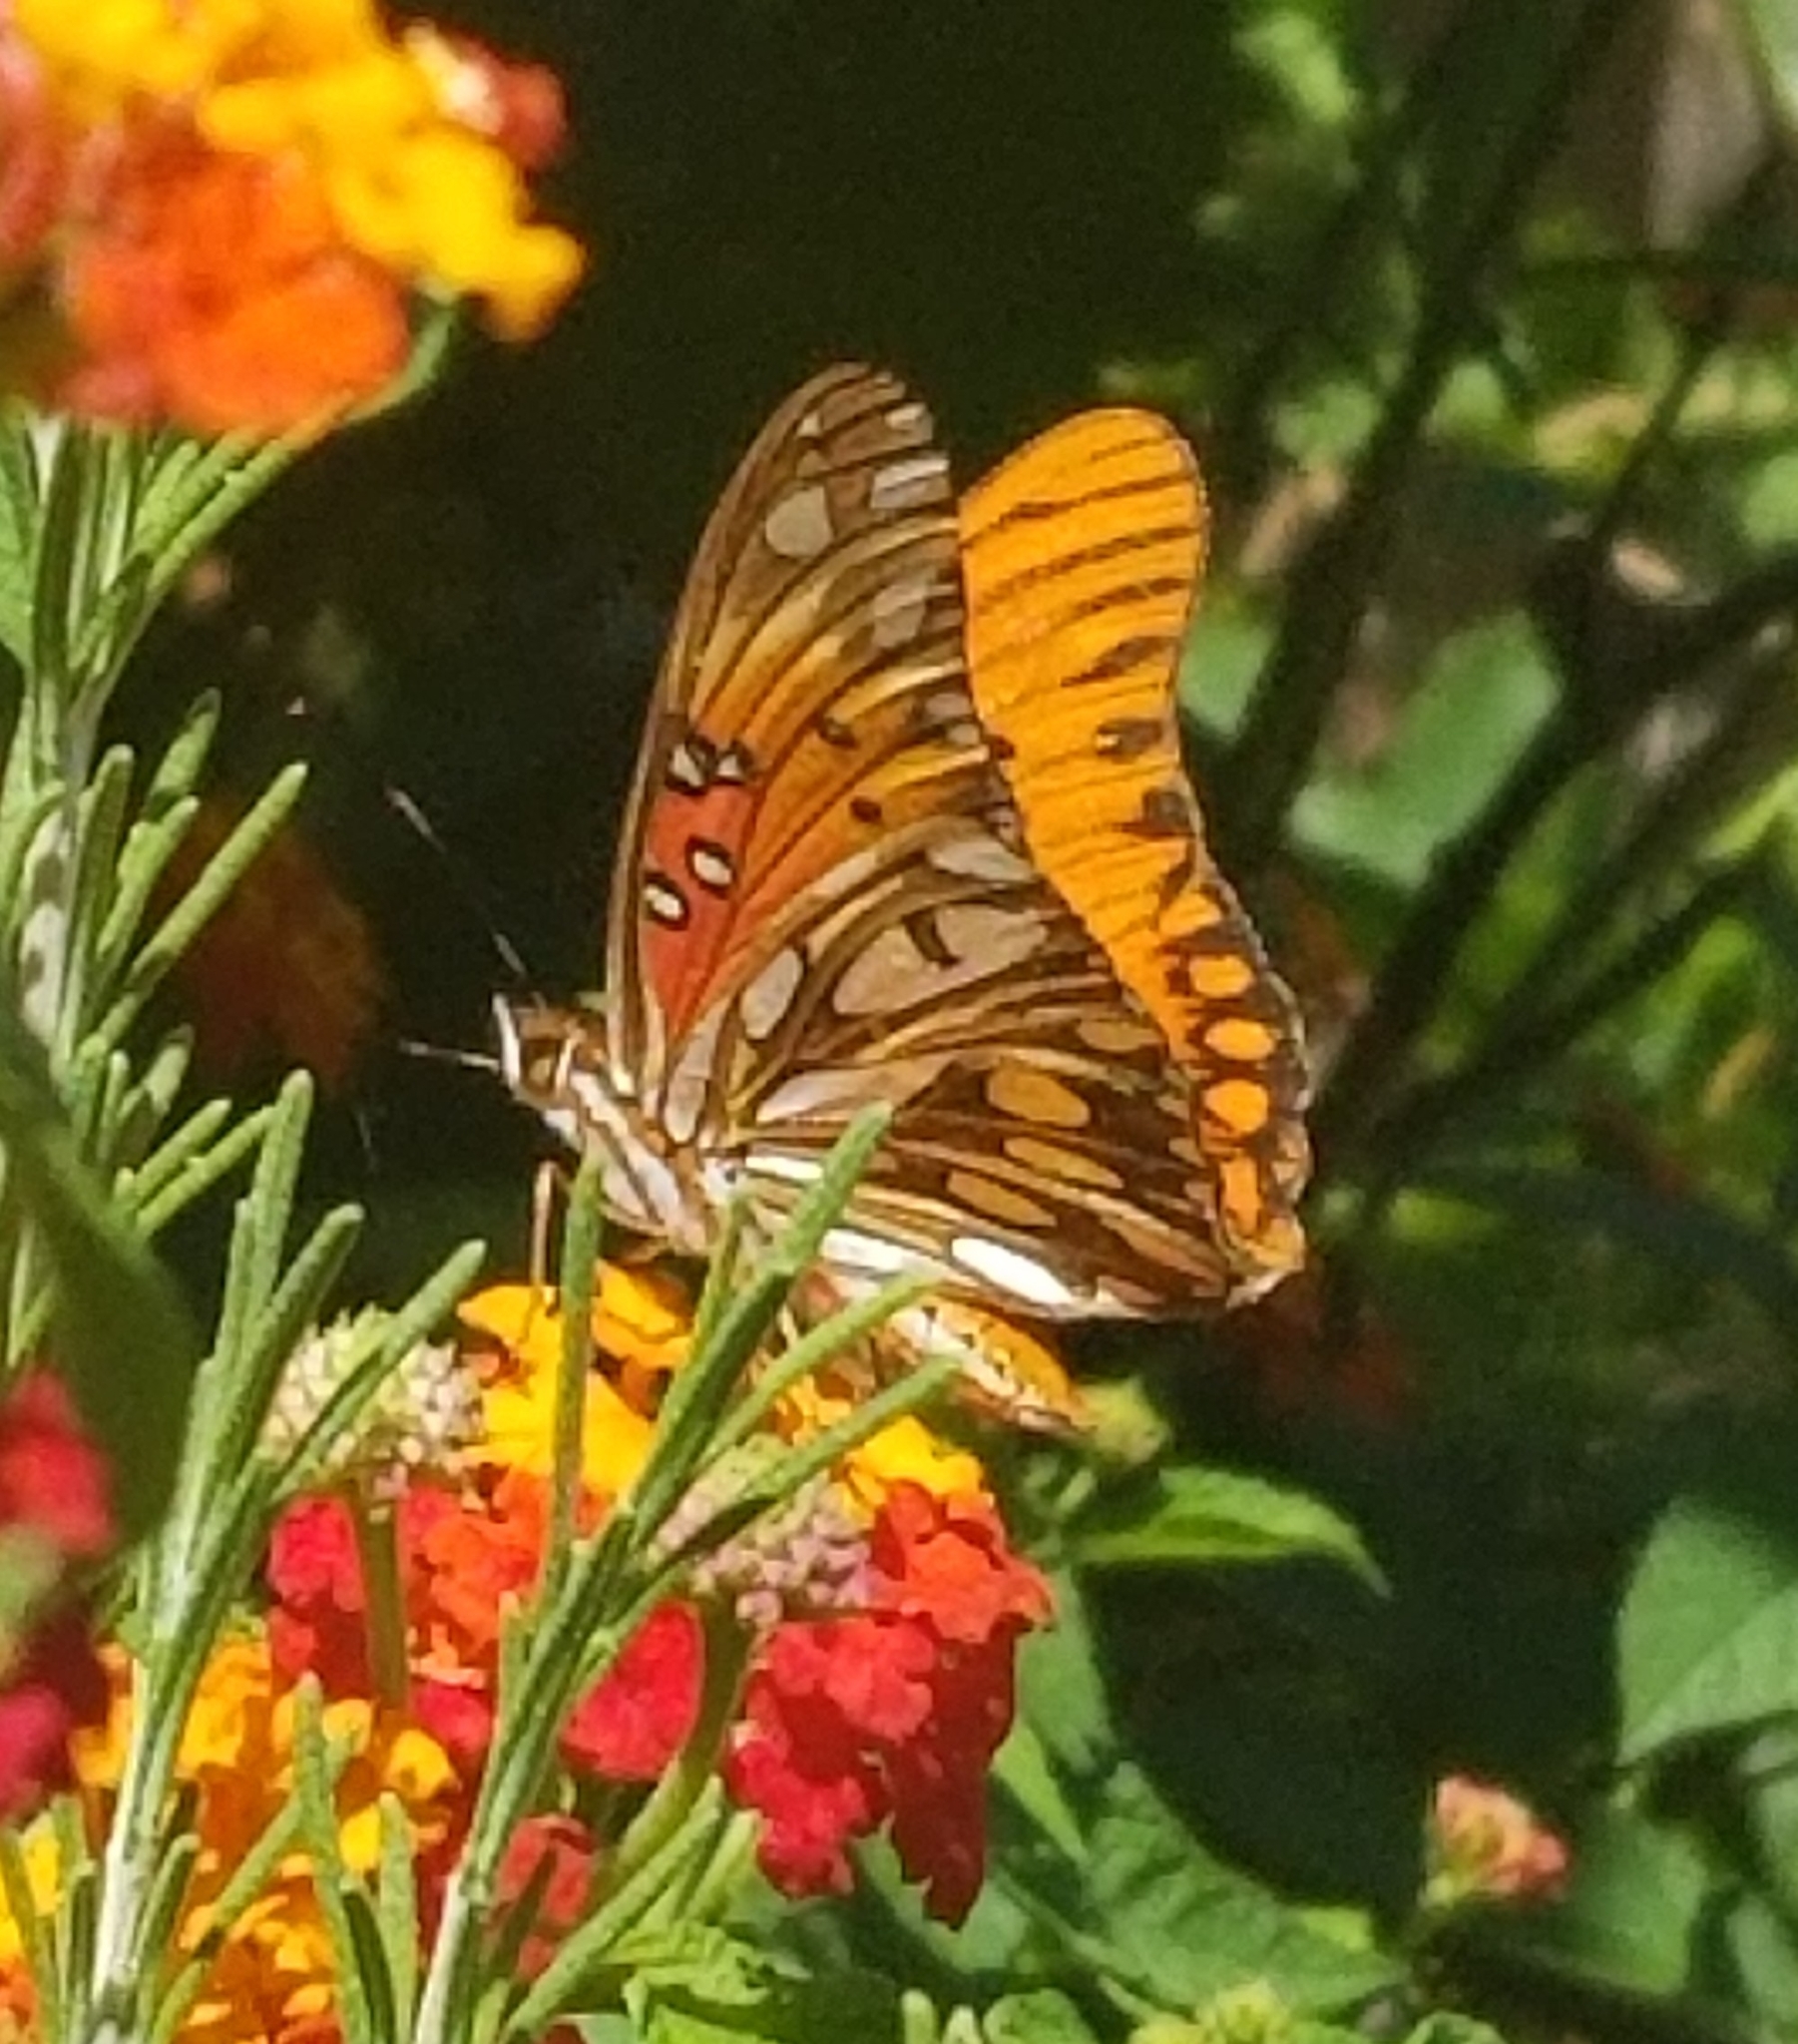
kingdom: Animalia
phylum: Arthropoda
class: Insecta
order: Lepidoptera
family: Nymphalidae
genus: Dione
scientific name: Dione vanillae
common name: Gulf fritillary
